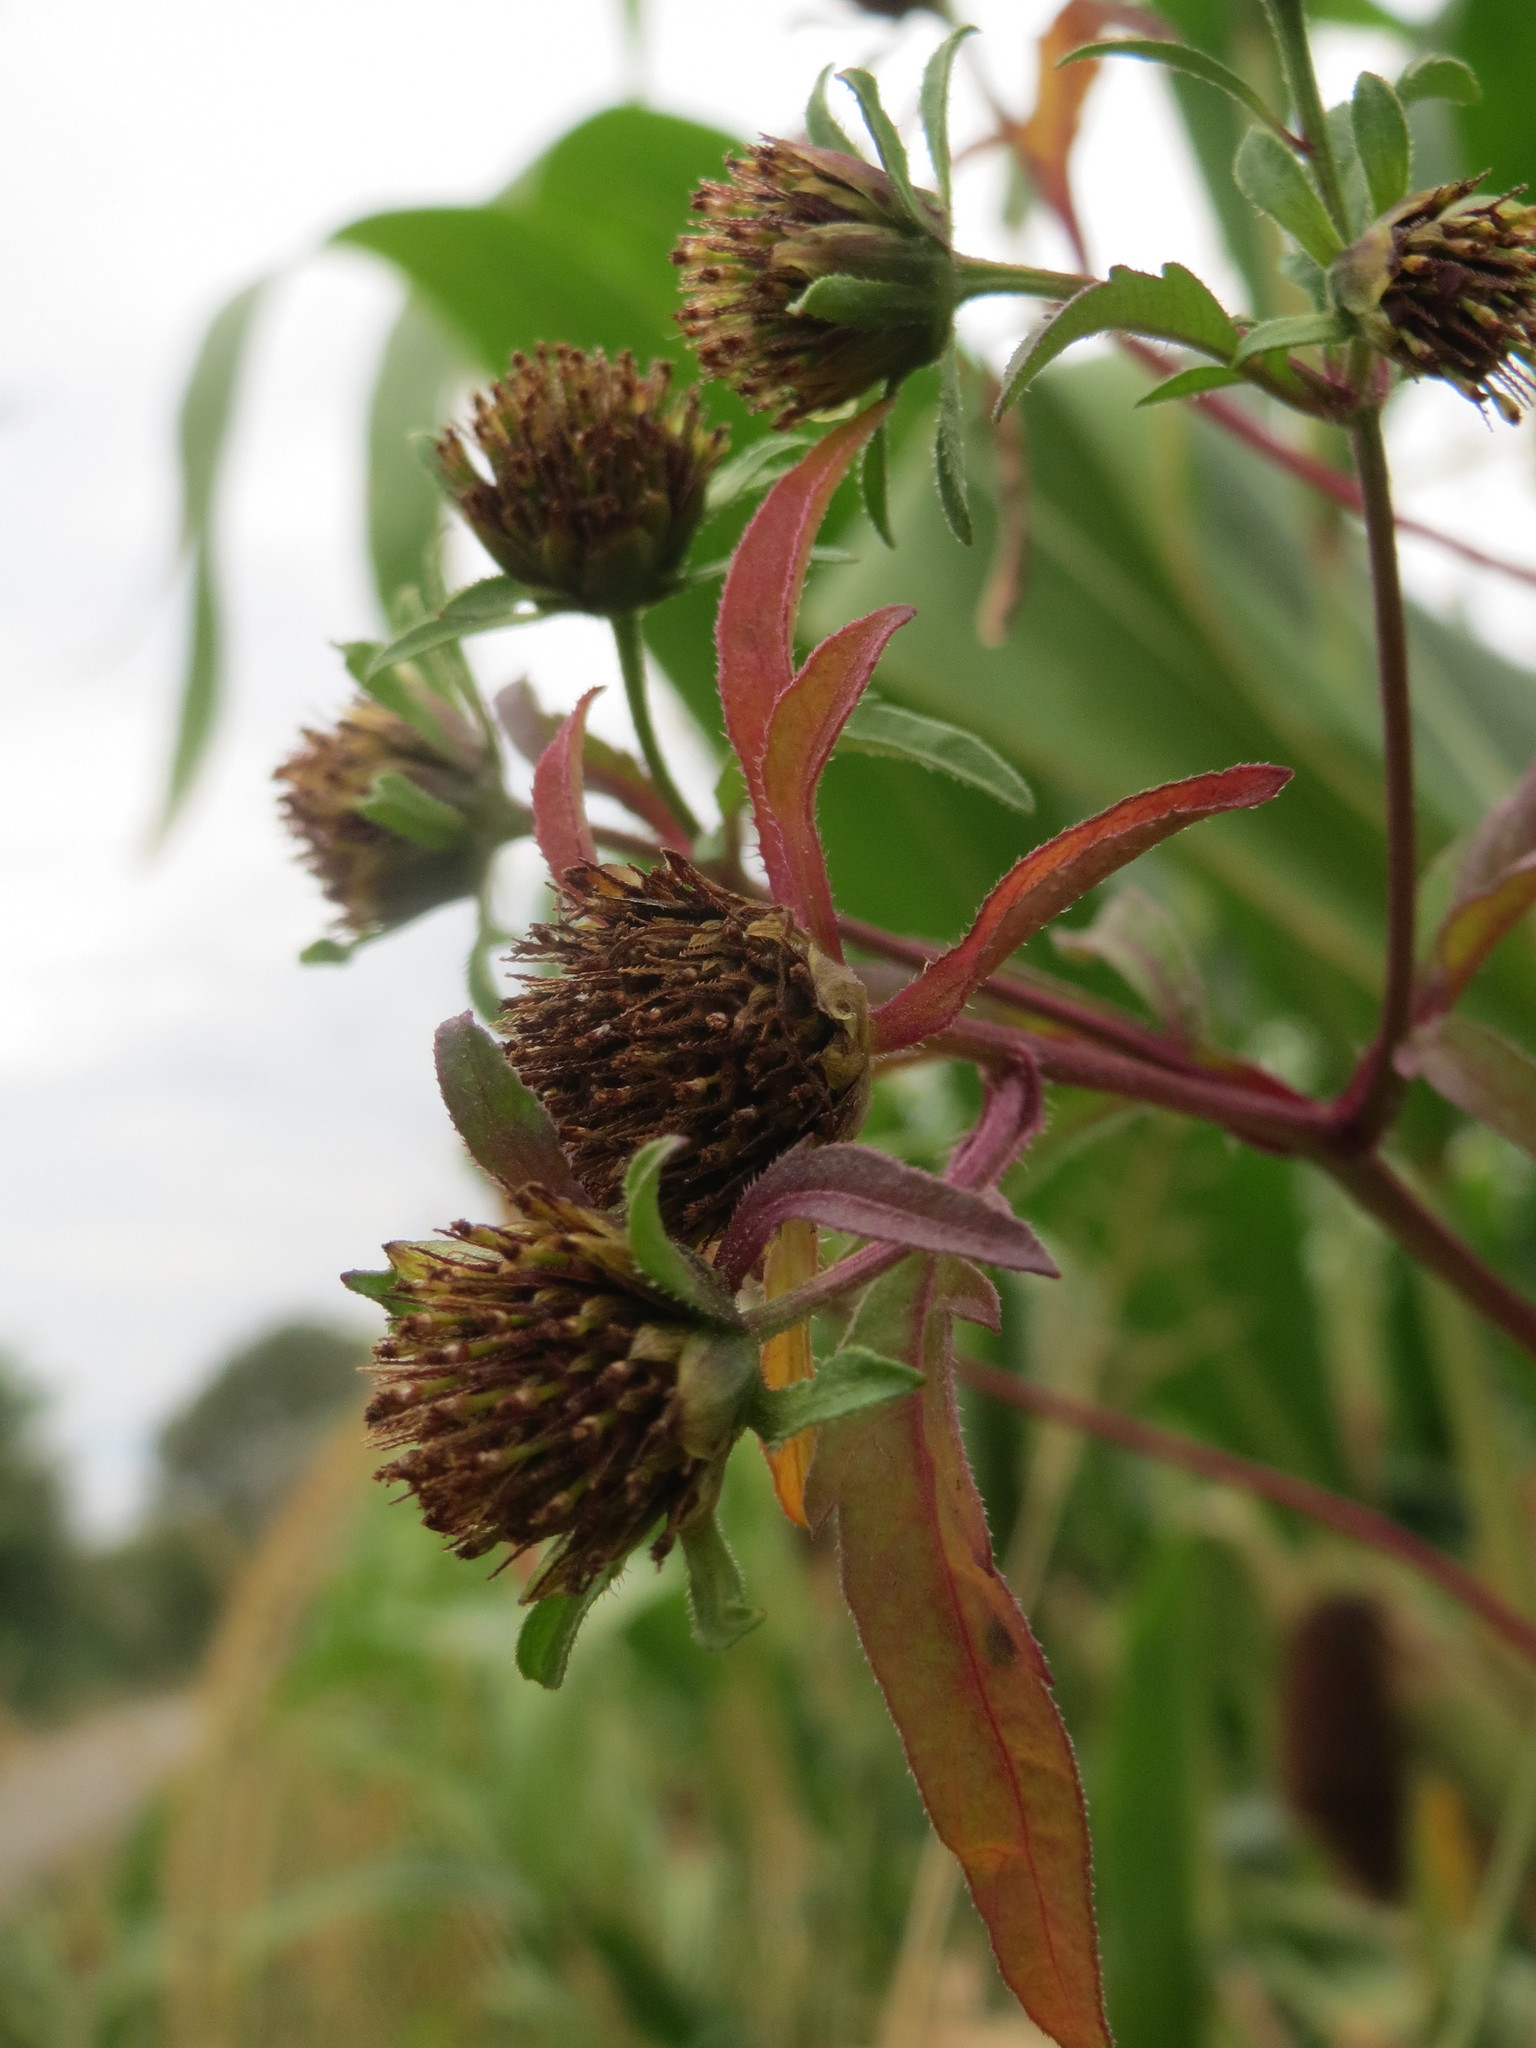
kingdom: Plantae
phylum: Tracheophyta
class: Magnoliopsida
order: Asterales
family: Asteraceae
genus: Bidens
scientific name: Bidens tripartita
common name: Trifid bur-marigold
